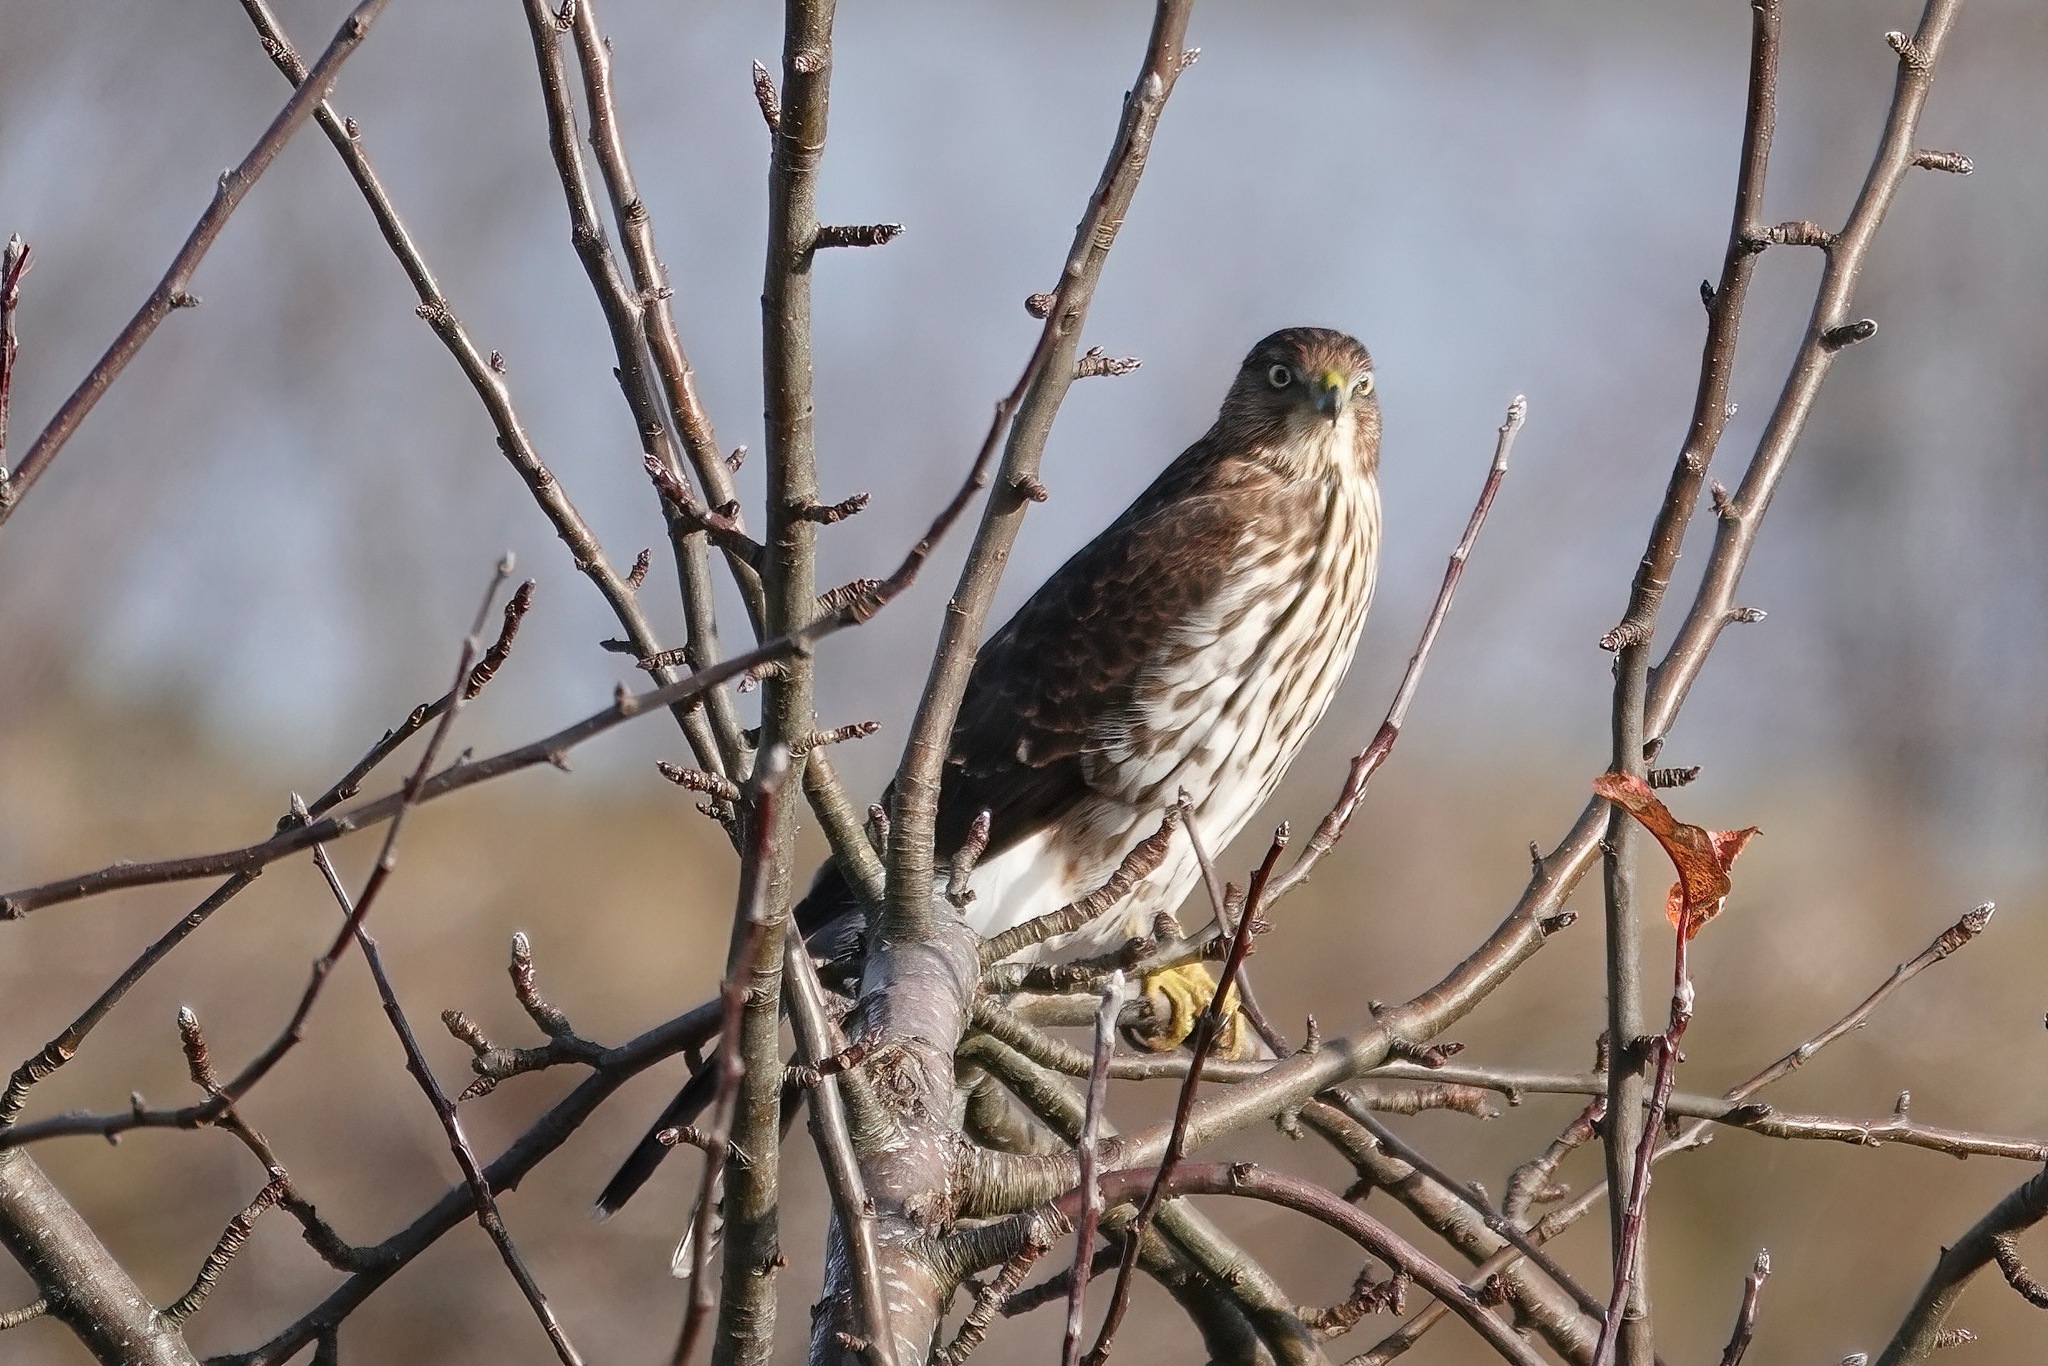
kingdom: Animalia
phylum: Chordata
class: Aves
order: Accipitriformes
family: Accipitridae
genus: Accipiter
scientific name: Accipiter cooperii
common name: Cooper's hawk
